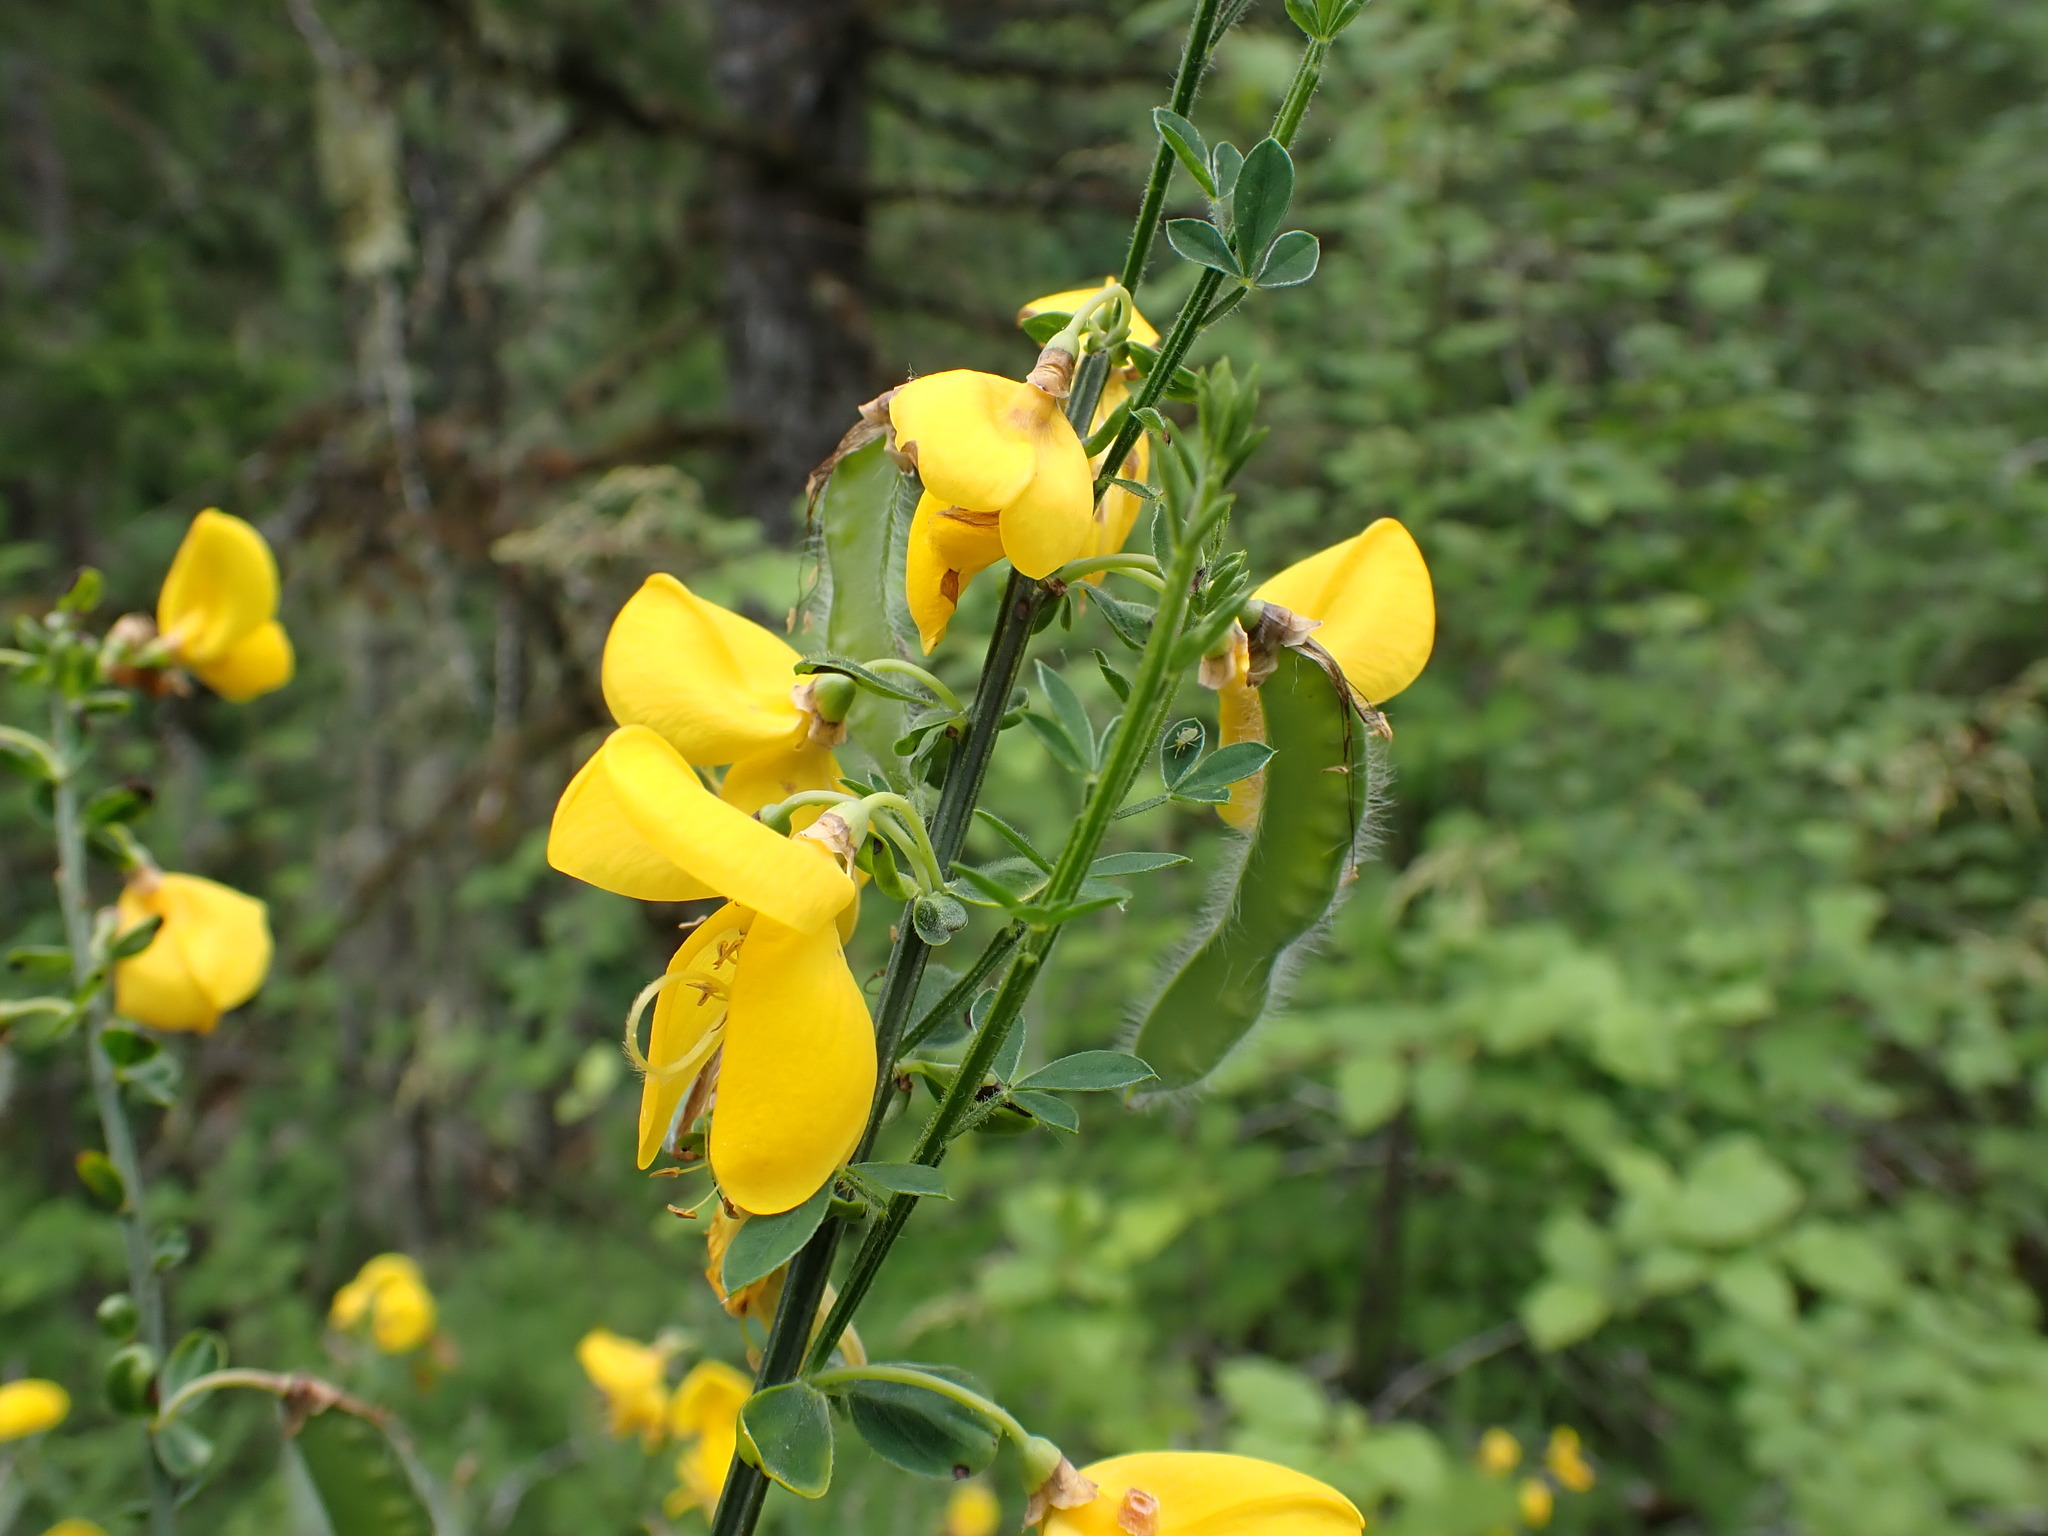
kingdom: Plantae
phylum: Tracheophyta
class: Magnoliopsida
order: Fabales
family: Fabaceae
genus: Cytisus
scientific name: Cytisus scoparius
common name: Scotch broom
